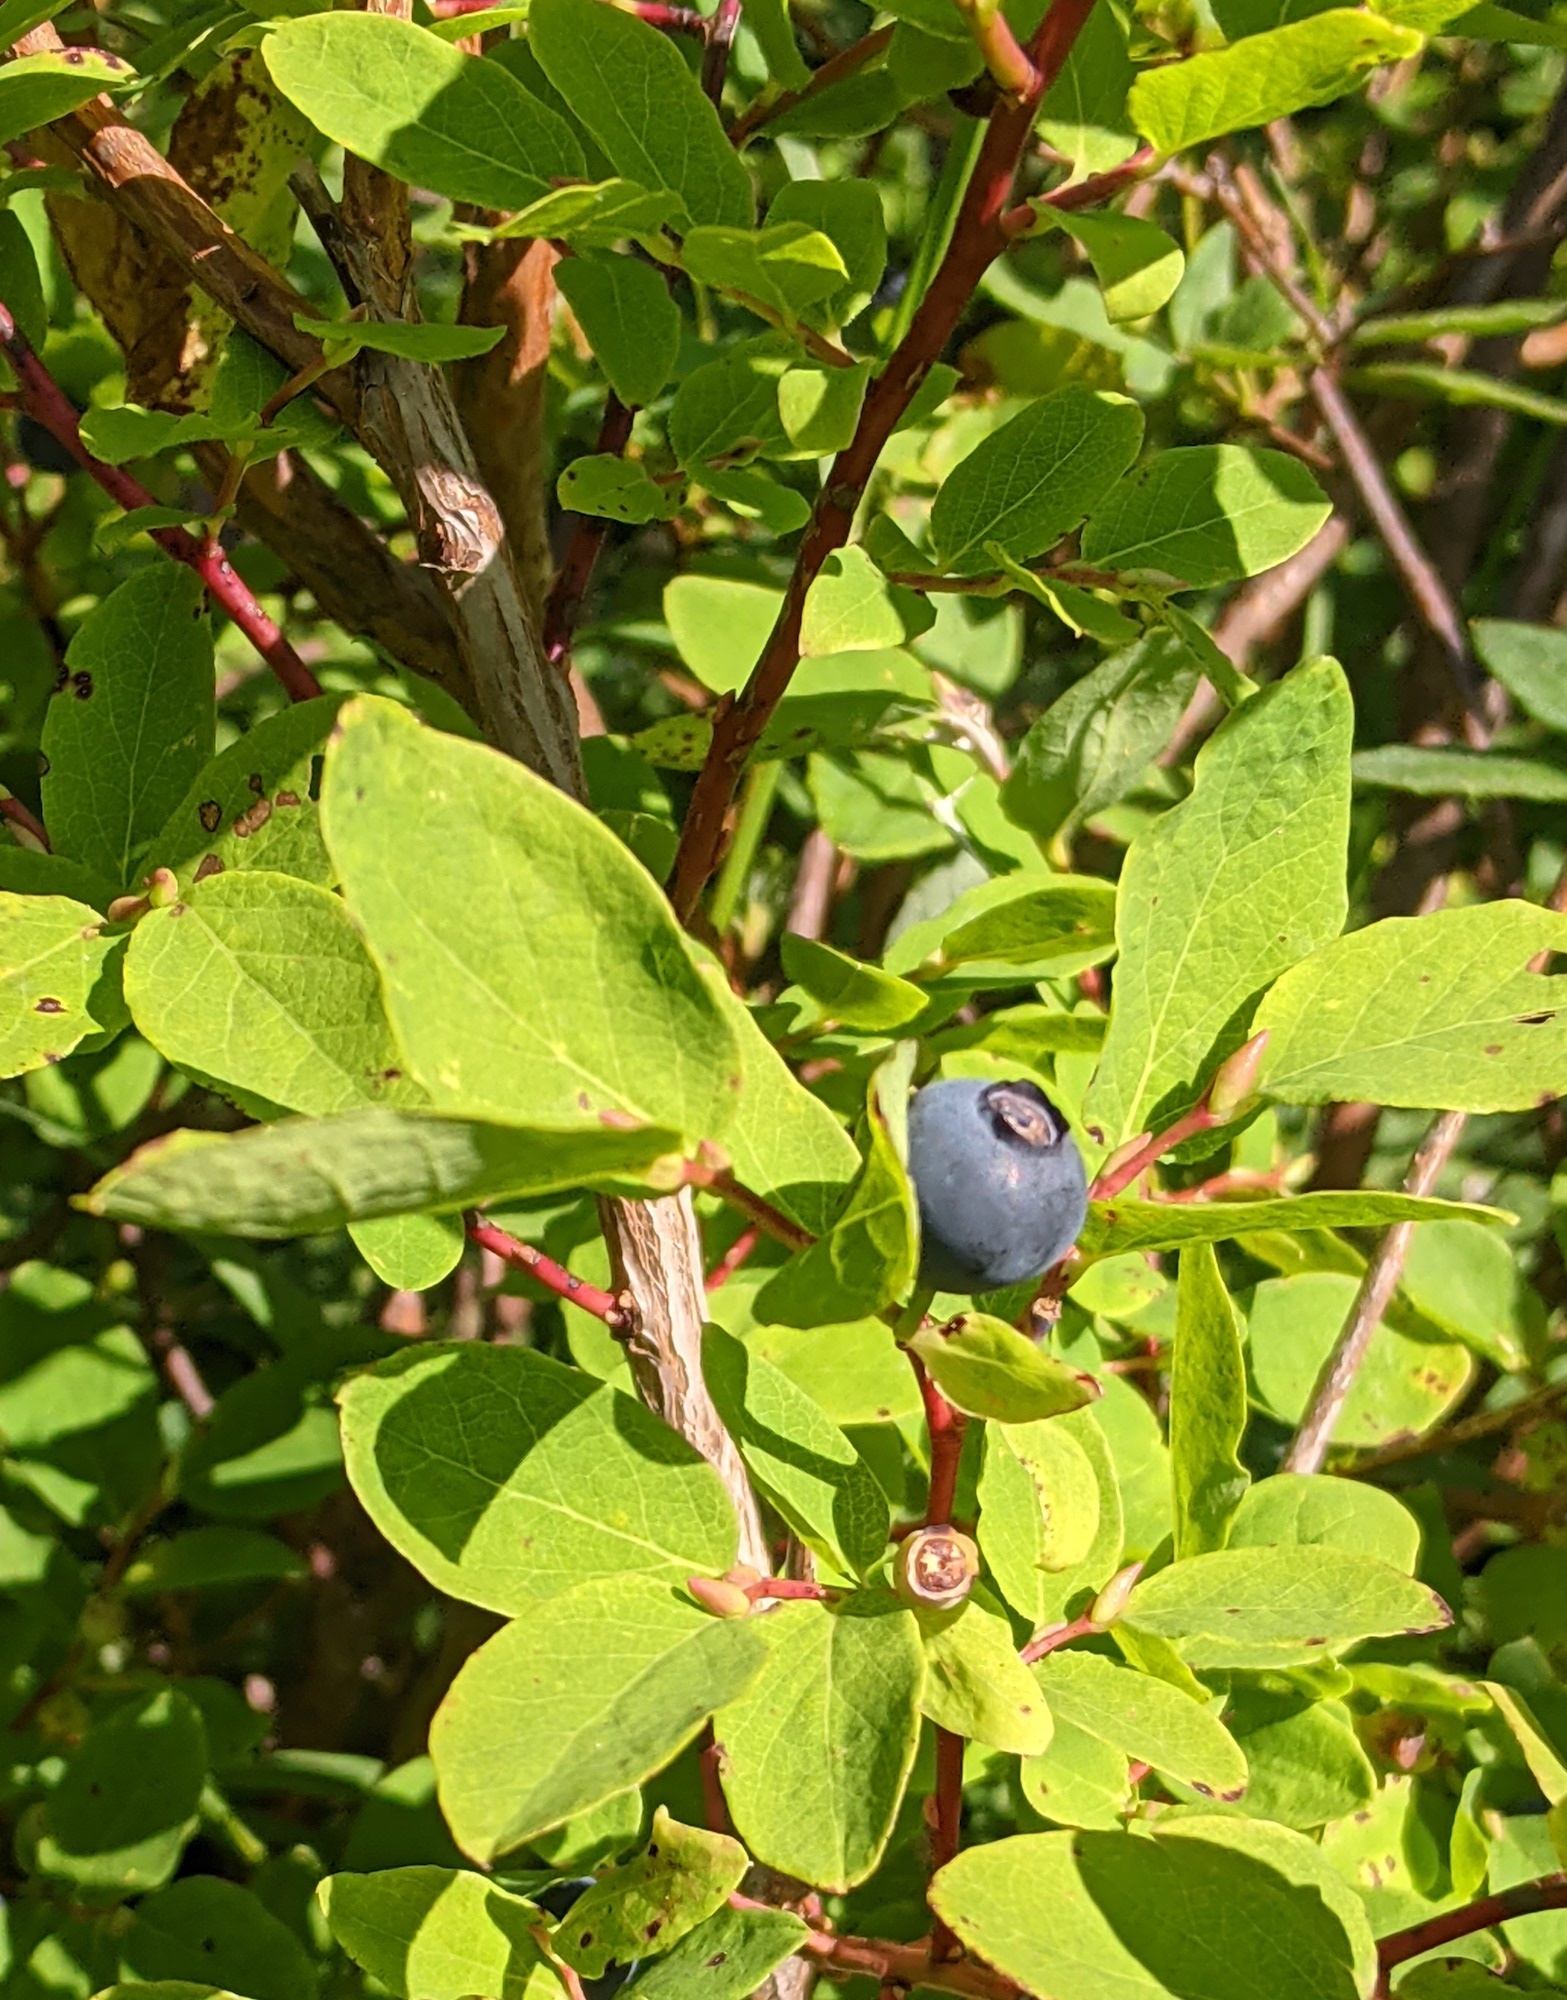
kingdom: Plantae
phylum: Tracheophyta
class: Magnoliopsida
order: Ericales
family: Ericaceae
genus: Vaccinium
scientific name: Vaccinium ovalifolium
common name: Early blueberry
